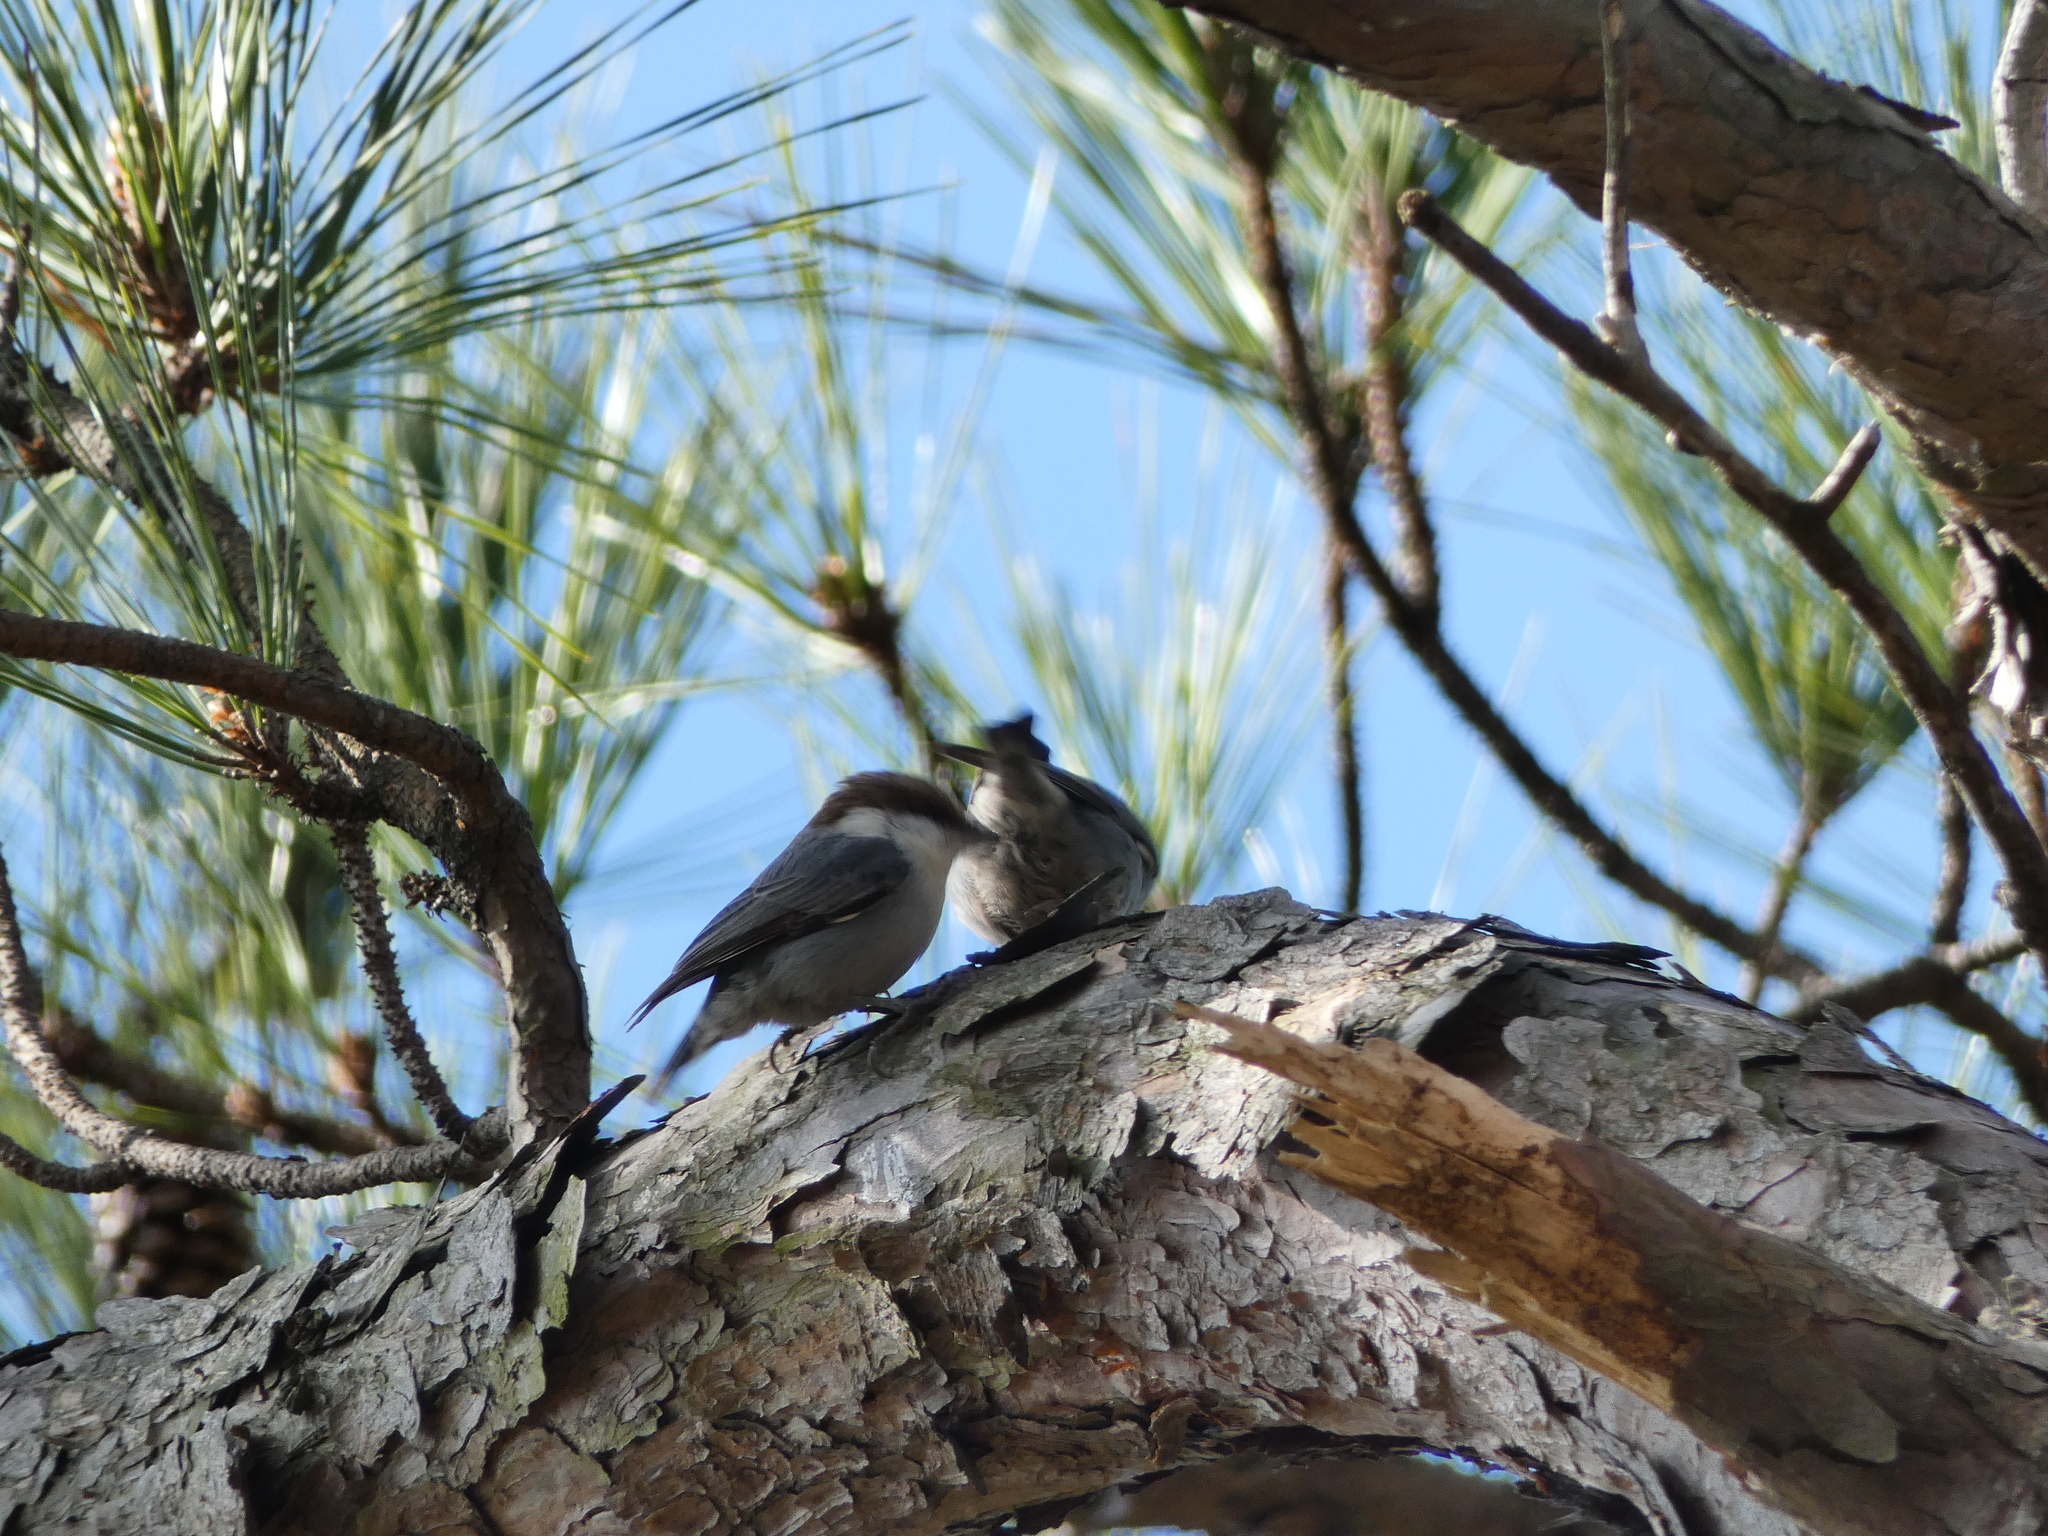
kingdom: Animalia
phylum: Chordata
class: Aves
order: Passeriformes
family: Sittidae
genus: Sitta
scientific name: Sitta pusilla
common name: Brown-headed nuthatch
